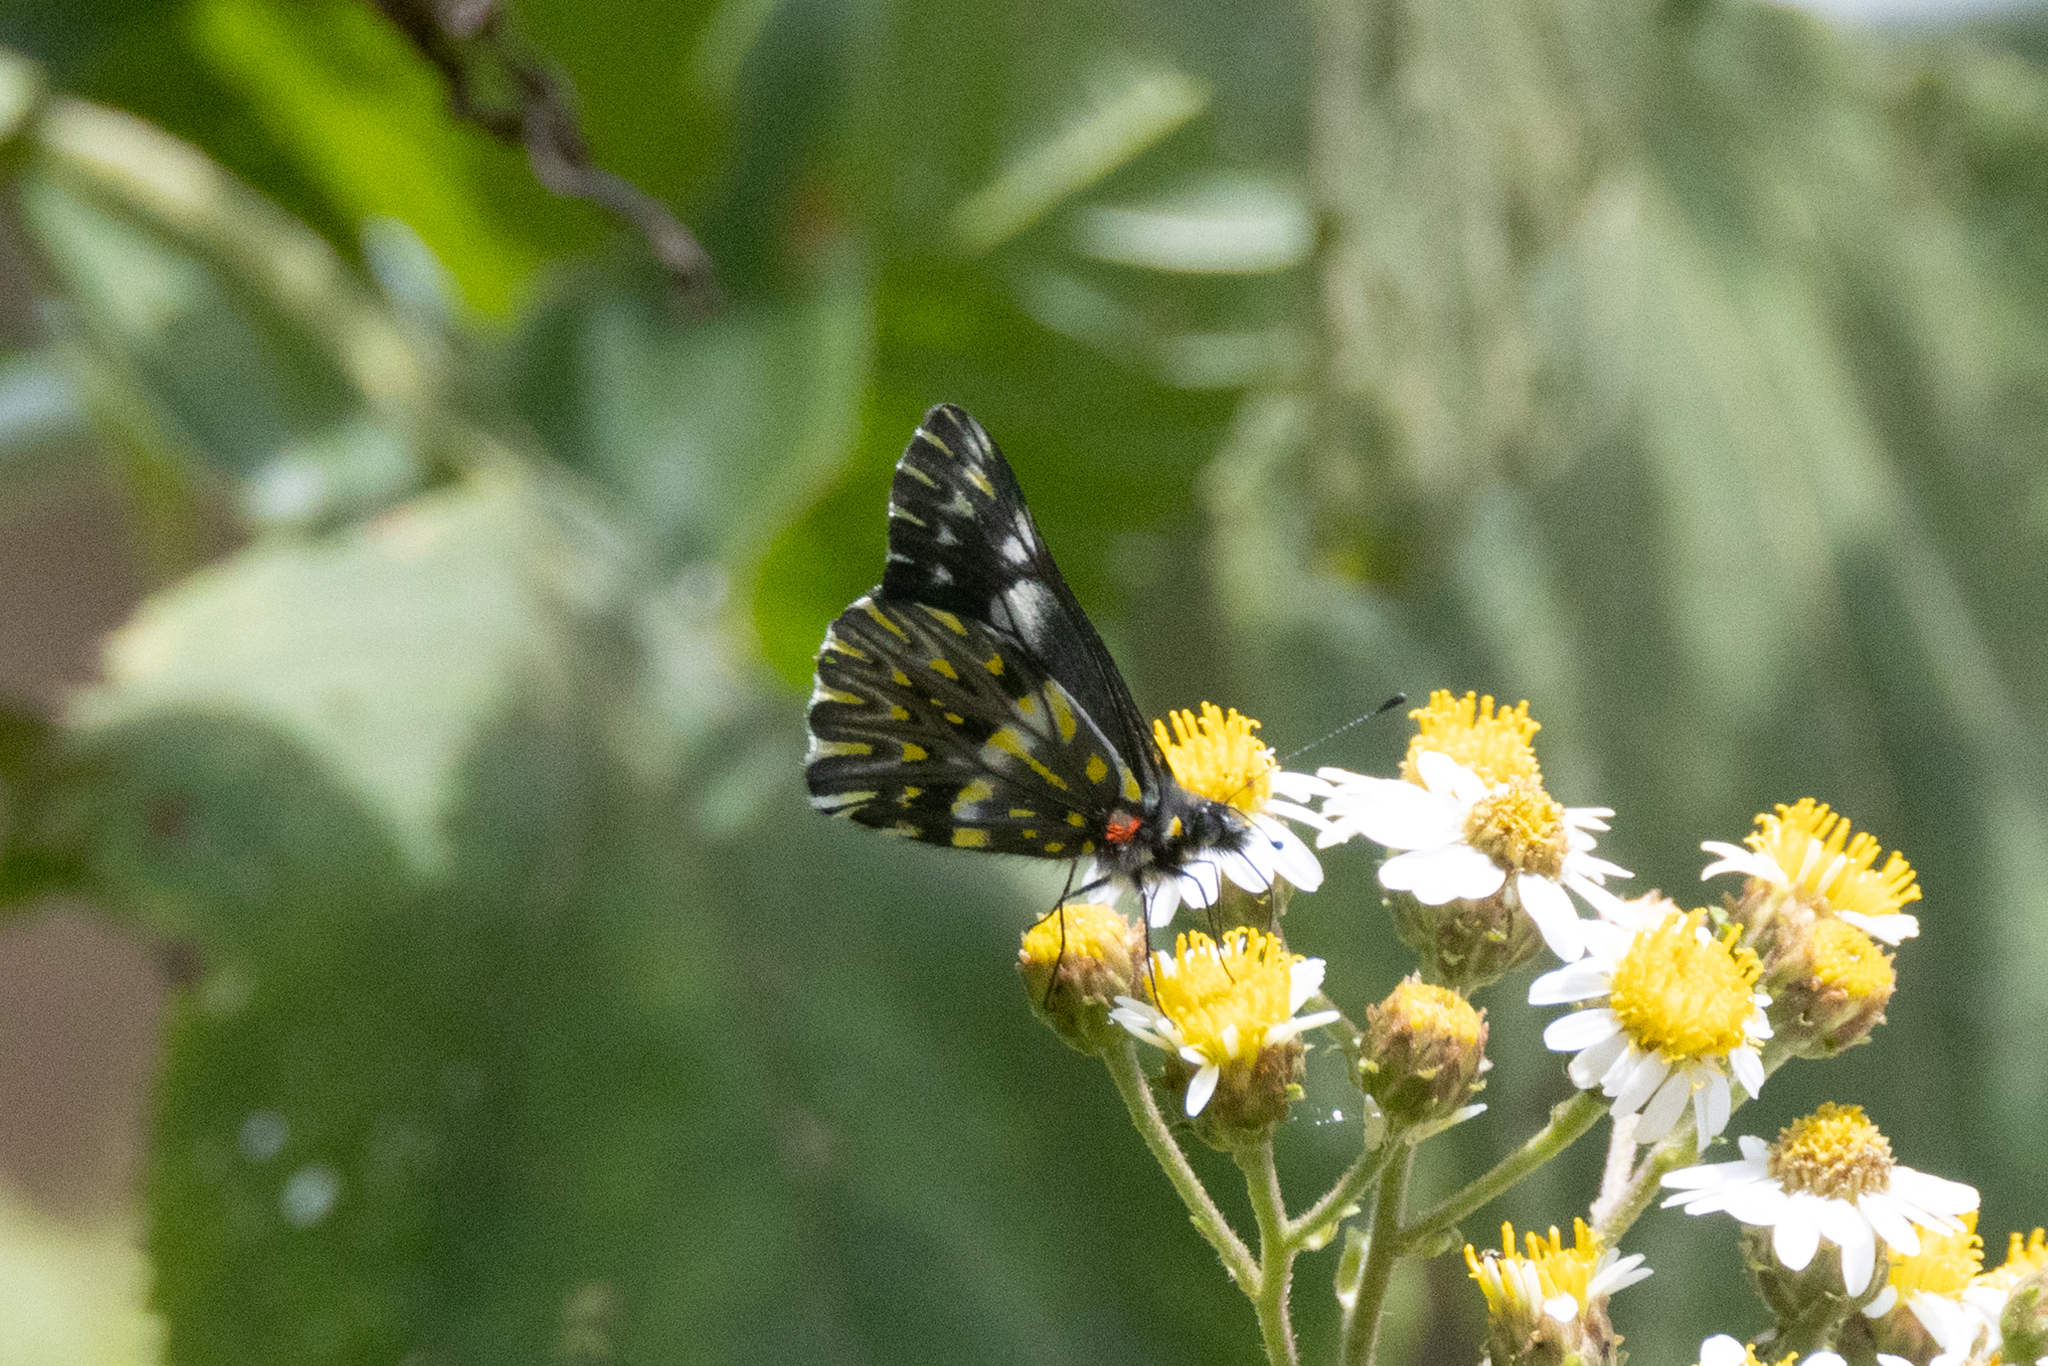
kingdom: Animalia
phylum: Arthropoda
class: Insecta
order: Lepidoptera
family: Pieridae
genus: Archonias
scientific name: Archonias teutila
